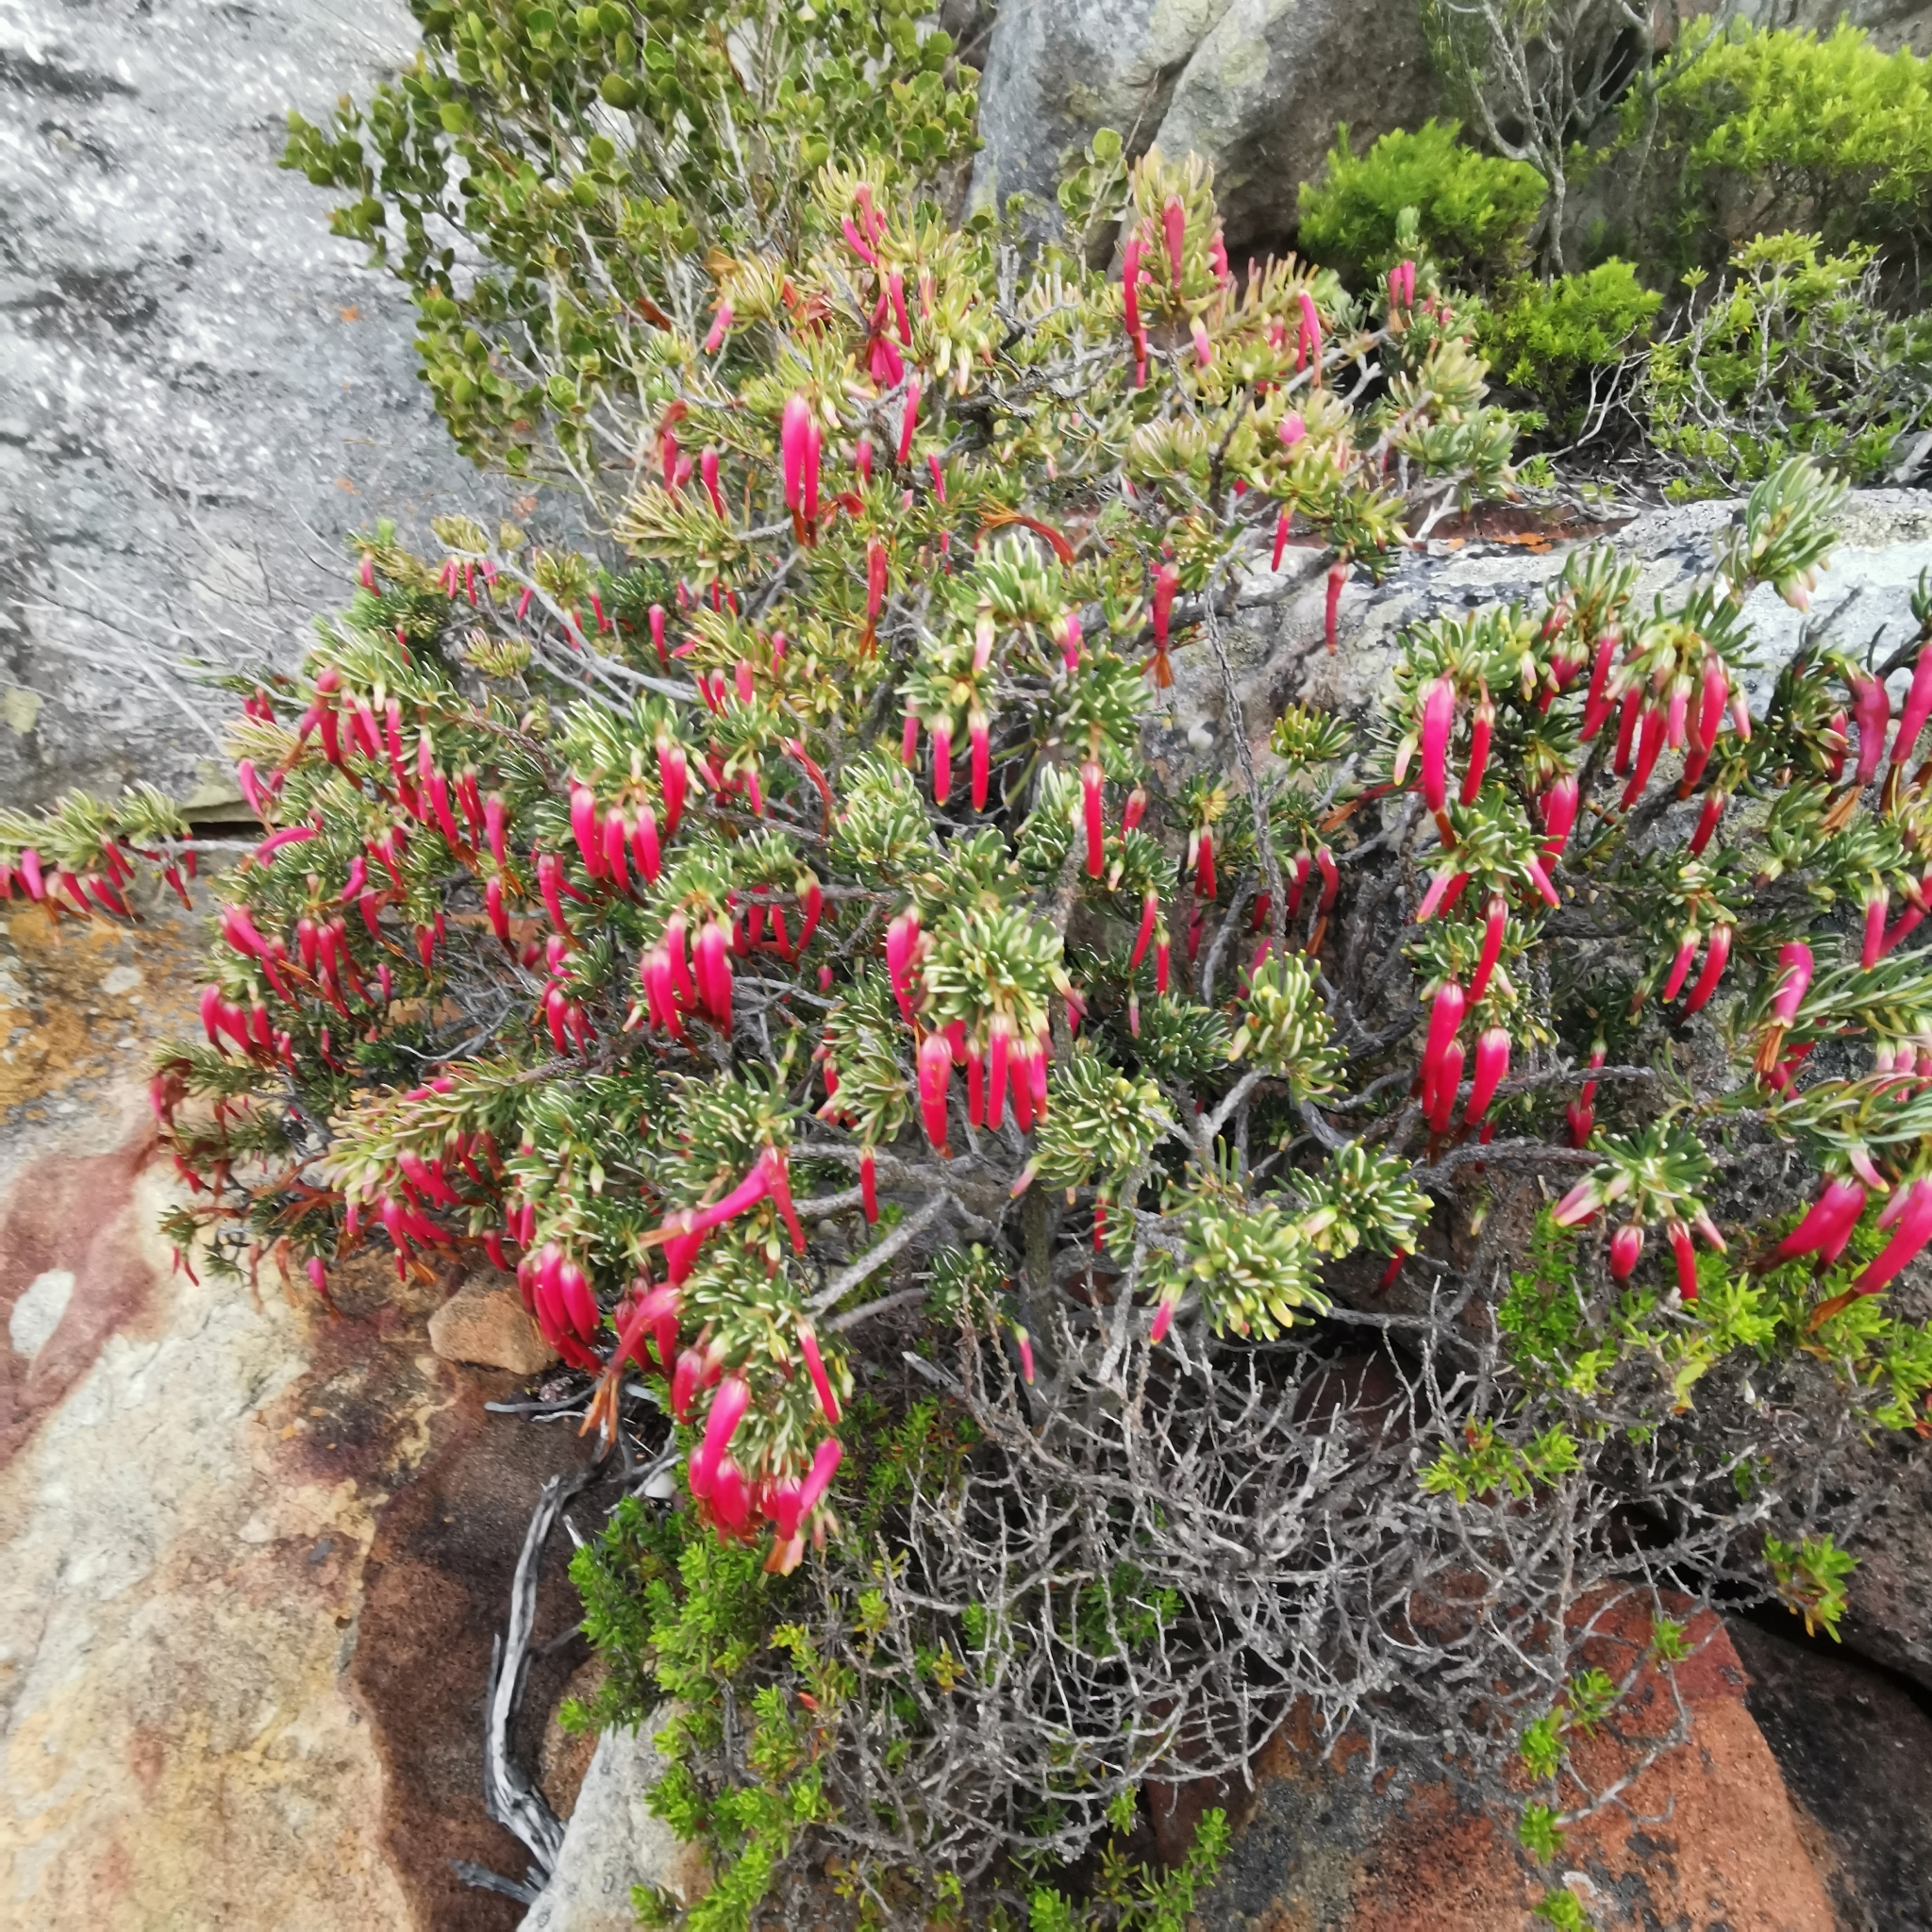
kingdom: Plantae
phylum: Tracheophyta
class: Magnoliopsida
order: Ericales
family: Ericaceae
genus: Erica
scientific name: Erica plukenetii
